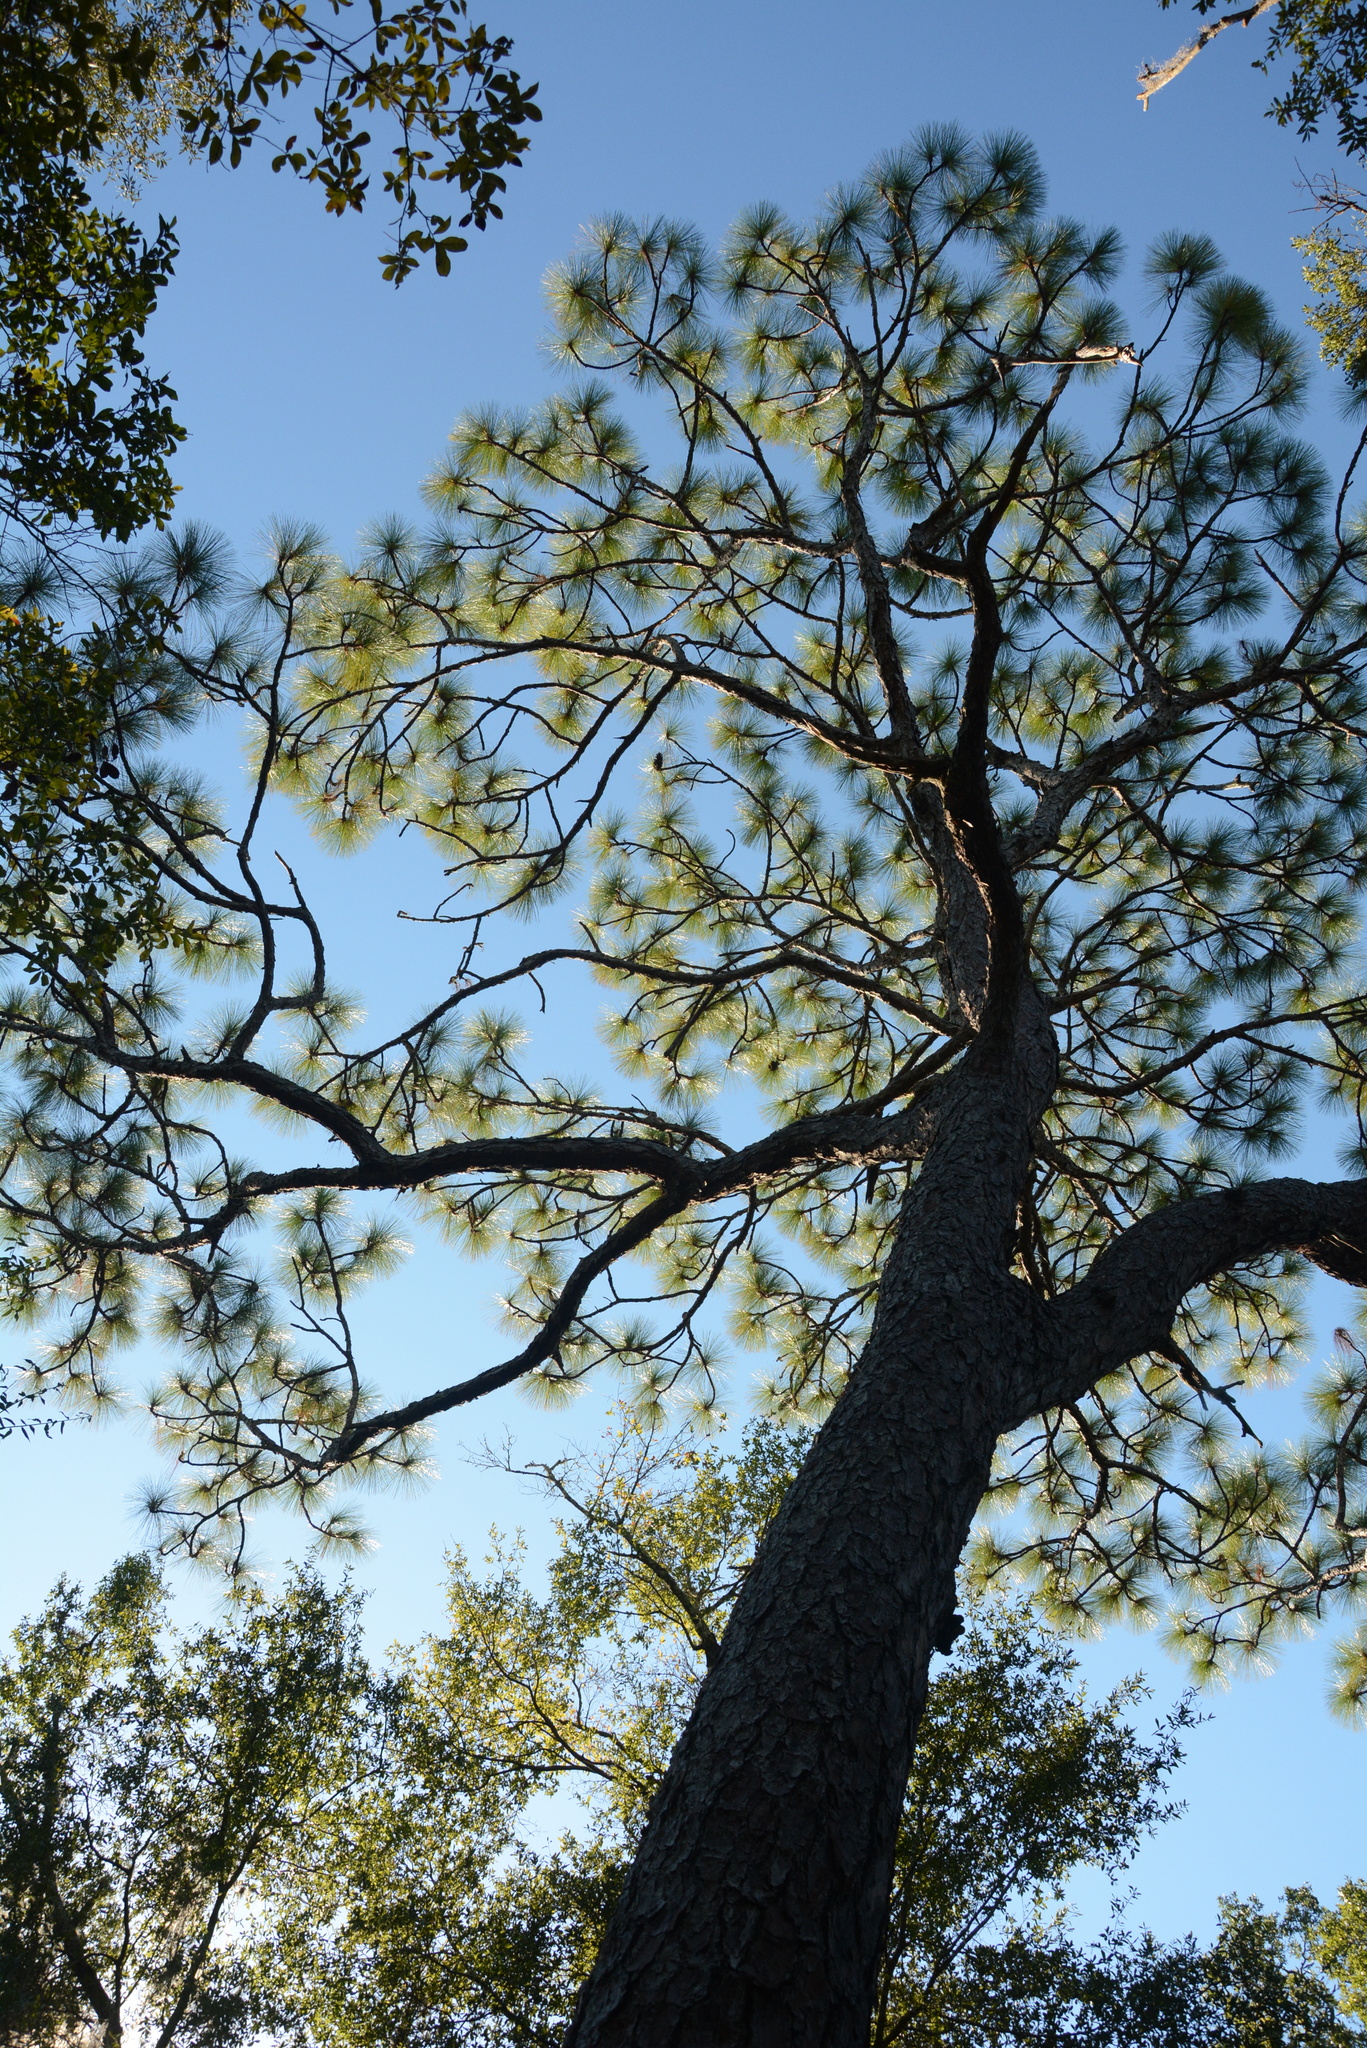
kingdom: Plantae
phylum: Tracheophyta
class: Pinopsida
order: Pinales
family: Pinaceae
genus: Pinus
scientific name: Pinus palustris
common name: Longleaf pine
